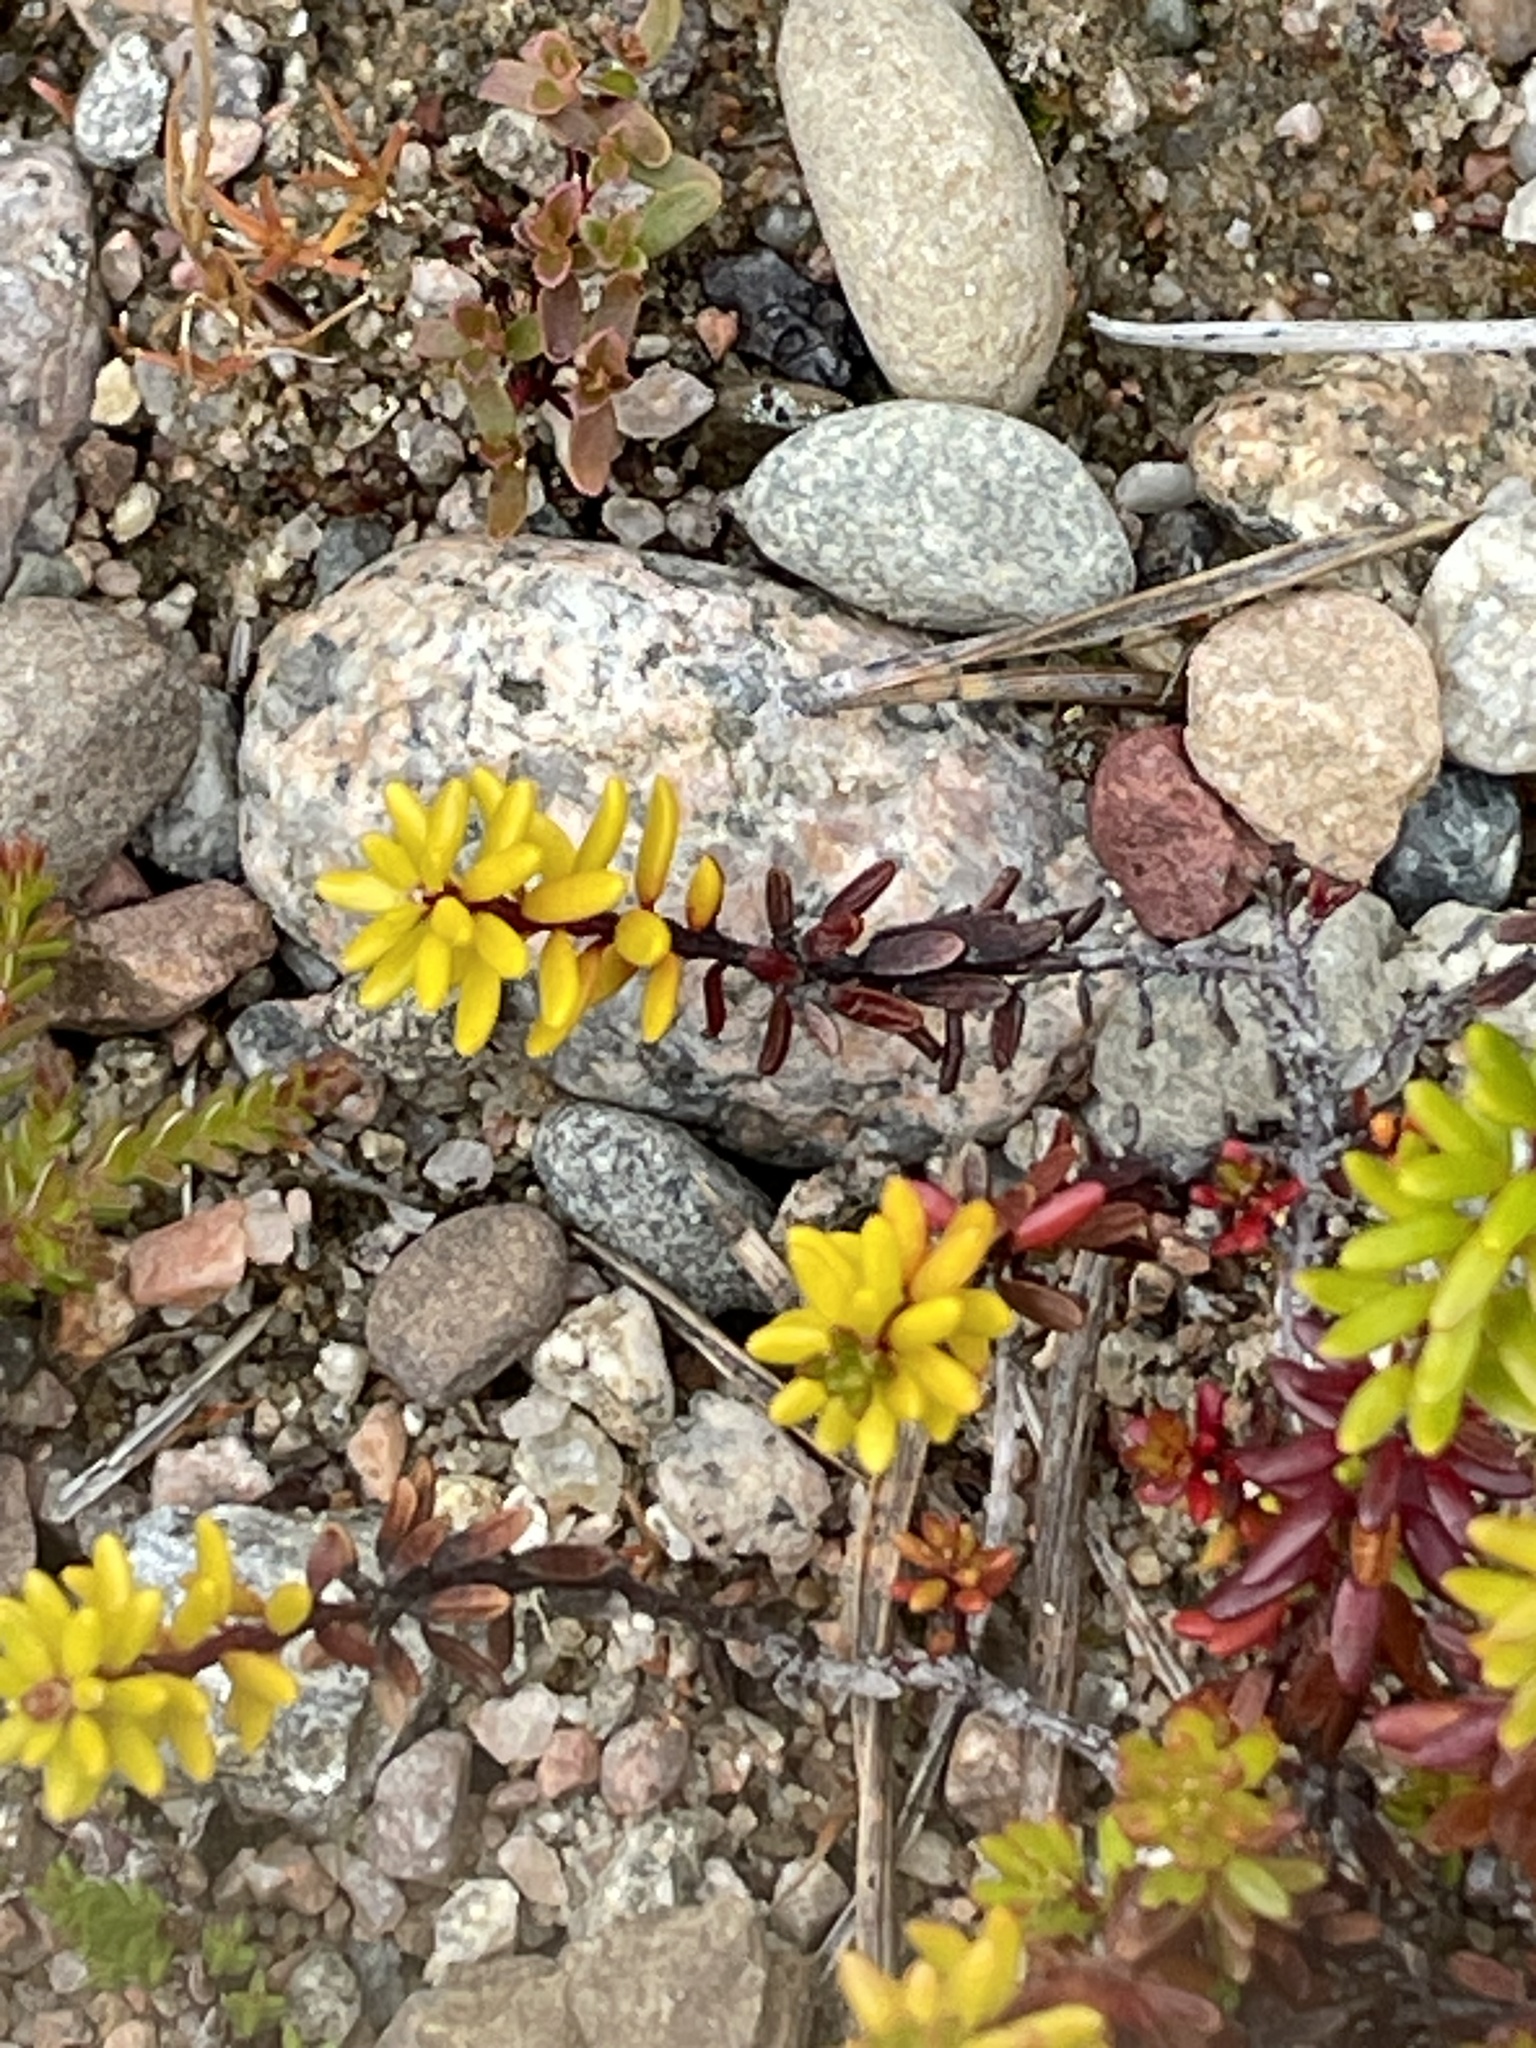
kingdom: Plantae
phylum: Tracheophyta
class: Magnoliopsida
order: Ericales
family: Ericaceae
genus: Empetrum
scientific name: Empetrum nigrum
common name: Black crowberry
